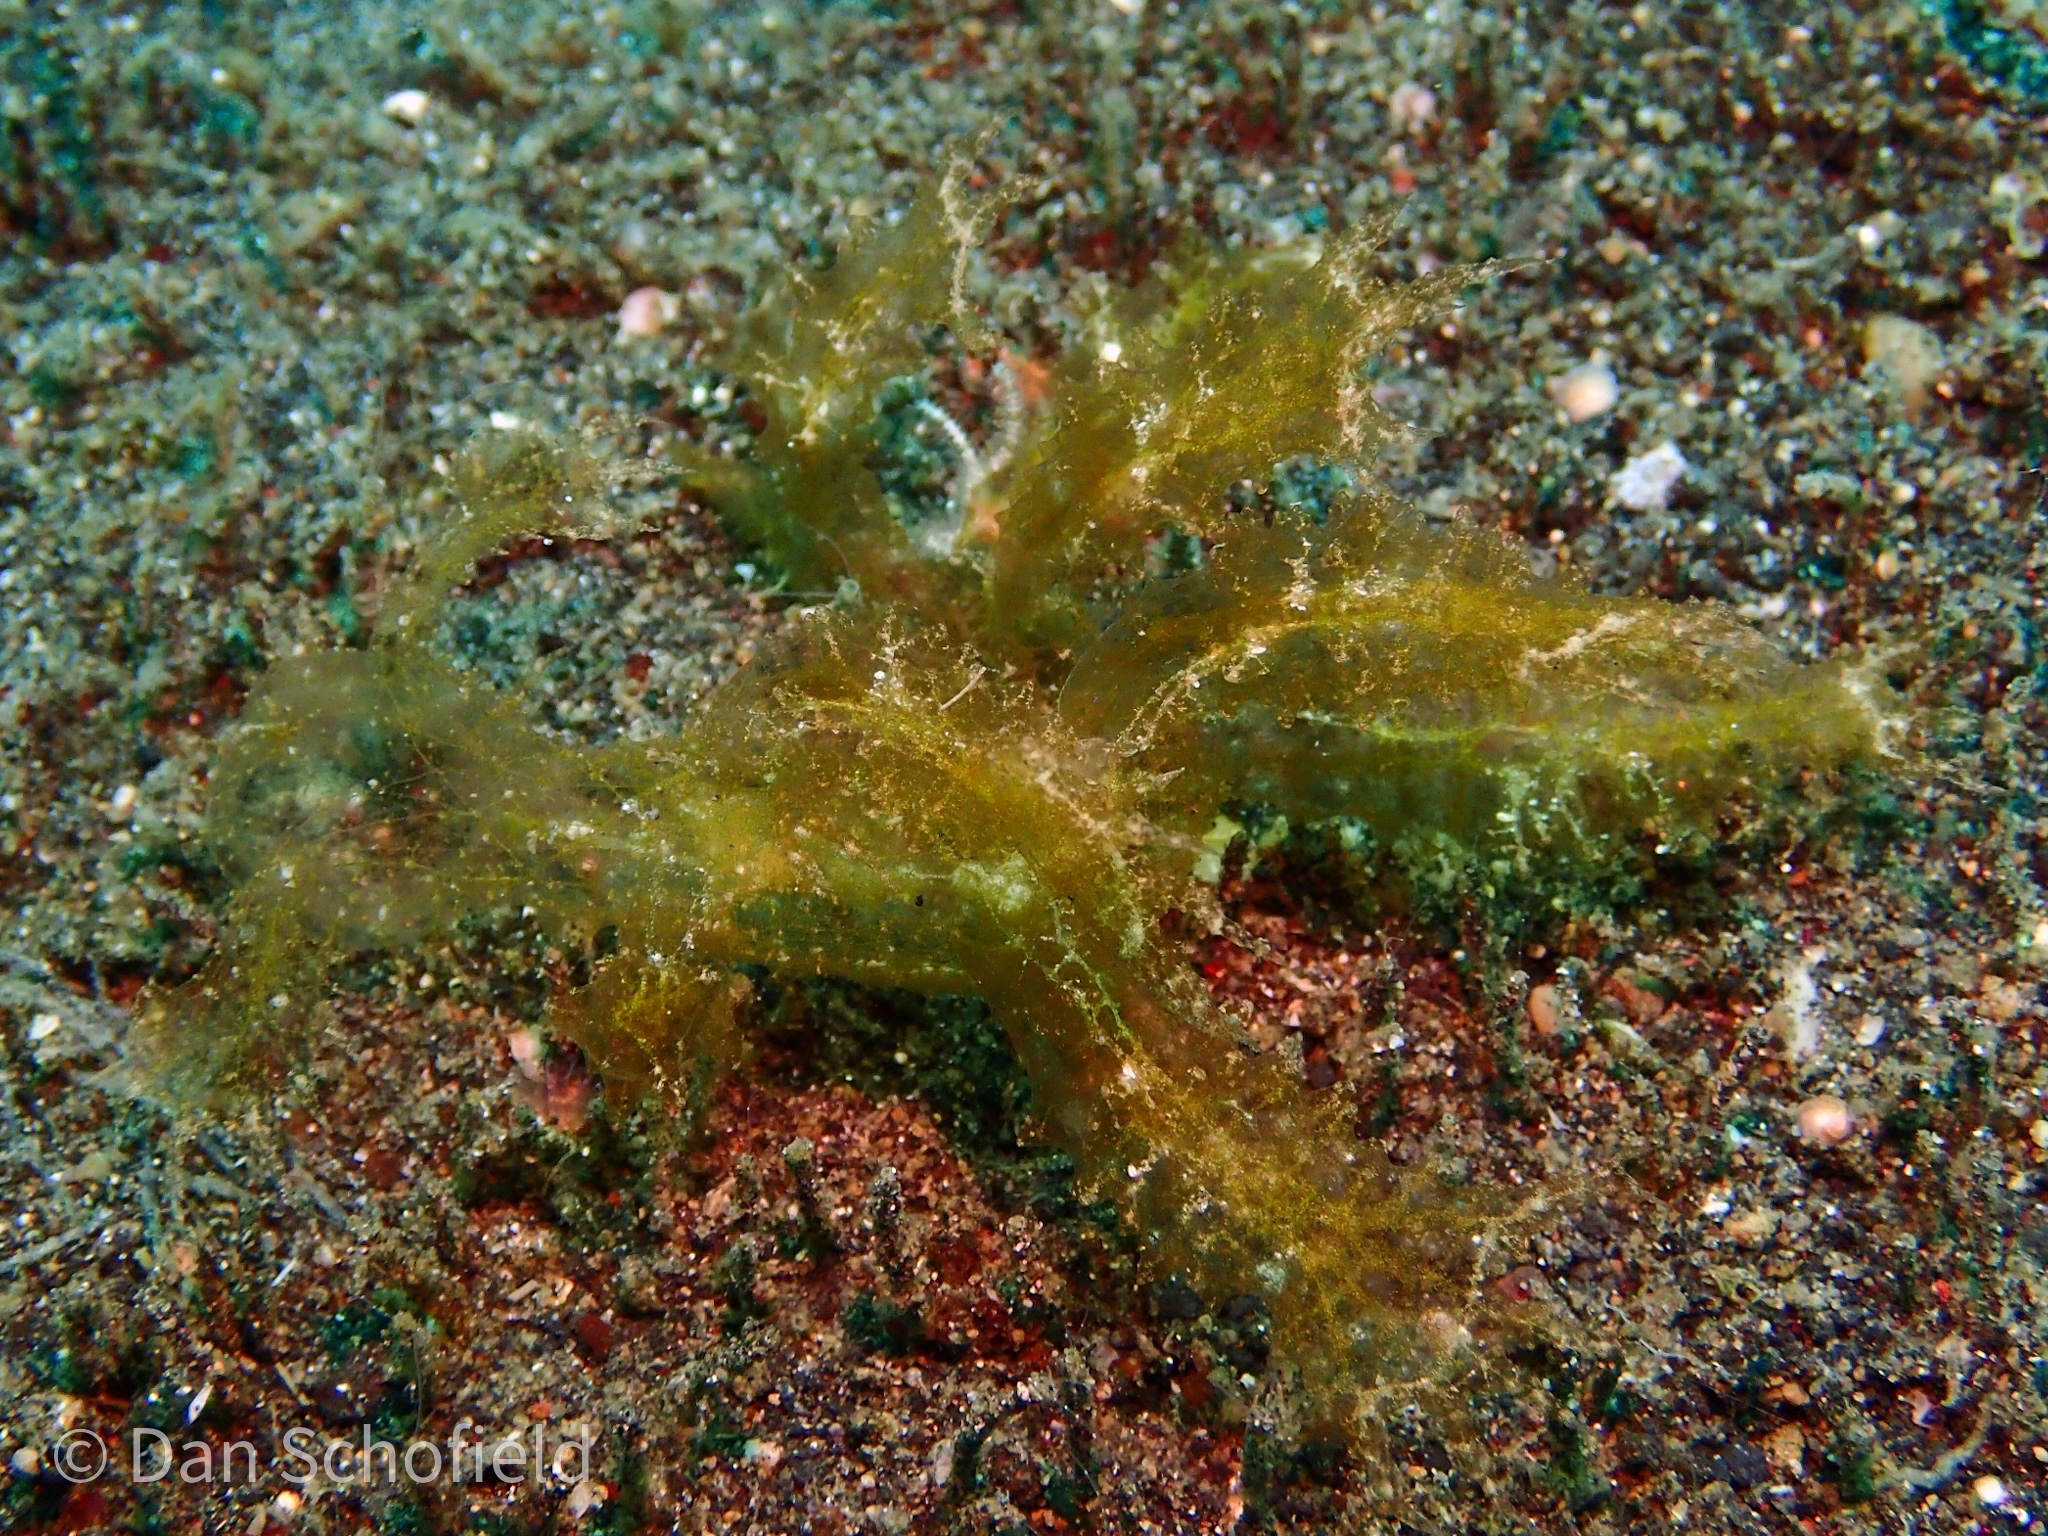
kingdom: Animalia
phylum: Mollusca
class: Gastropoda
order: Nudibranchia
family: Tethydidae
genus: Melibe
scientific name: Melibe engeli
